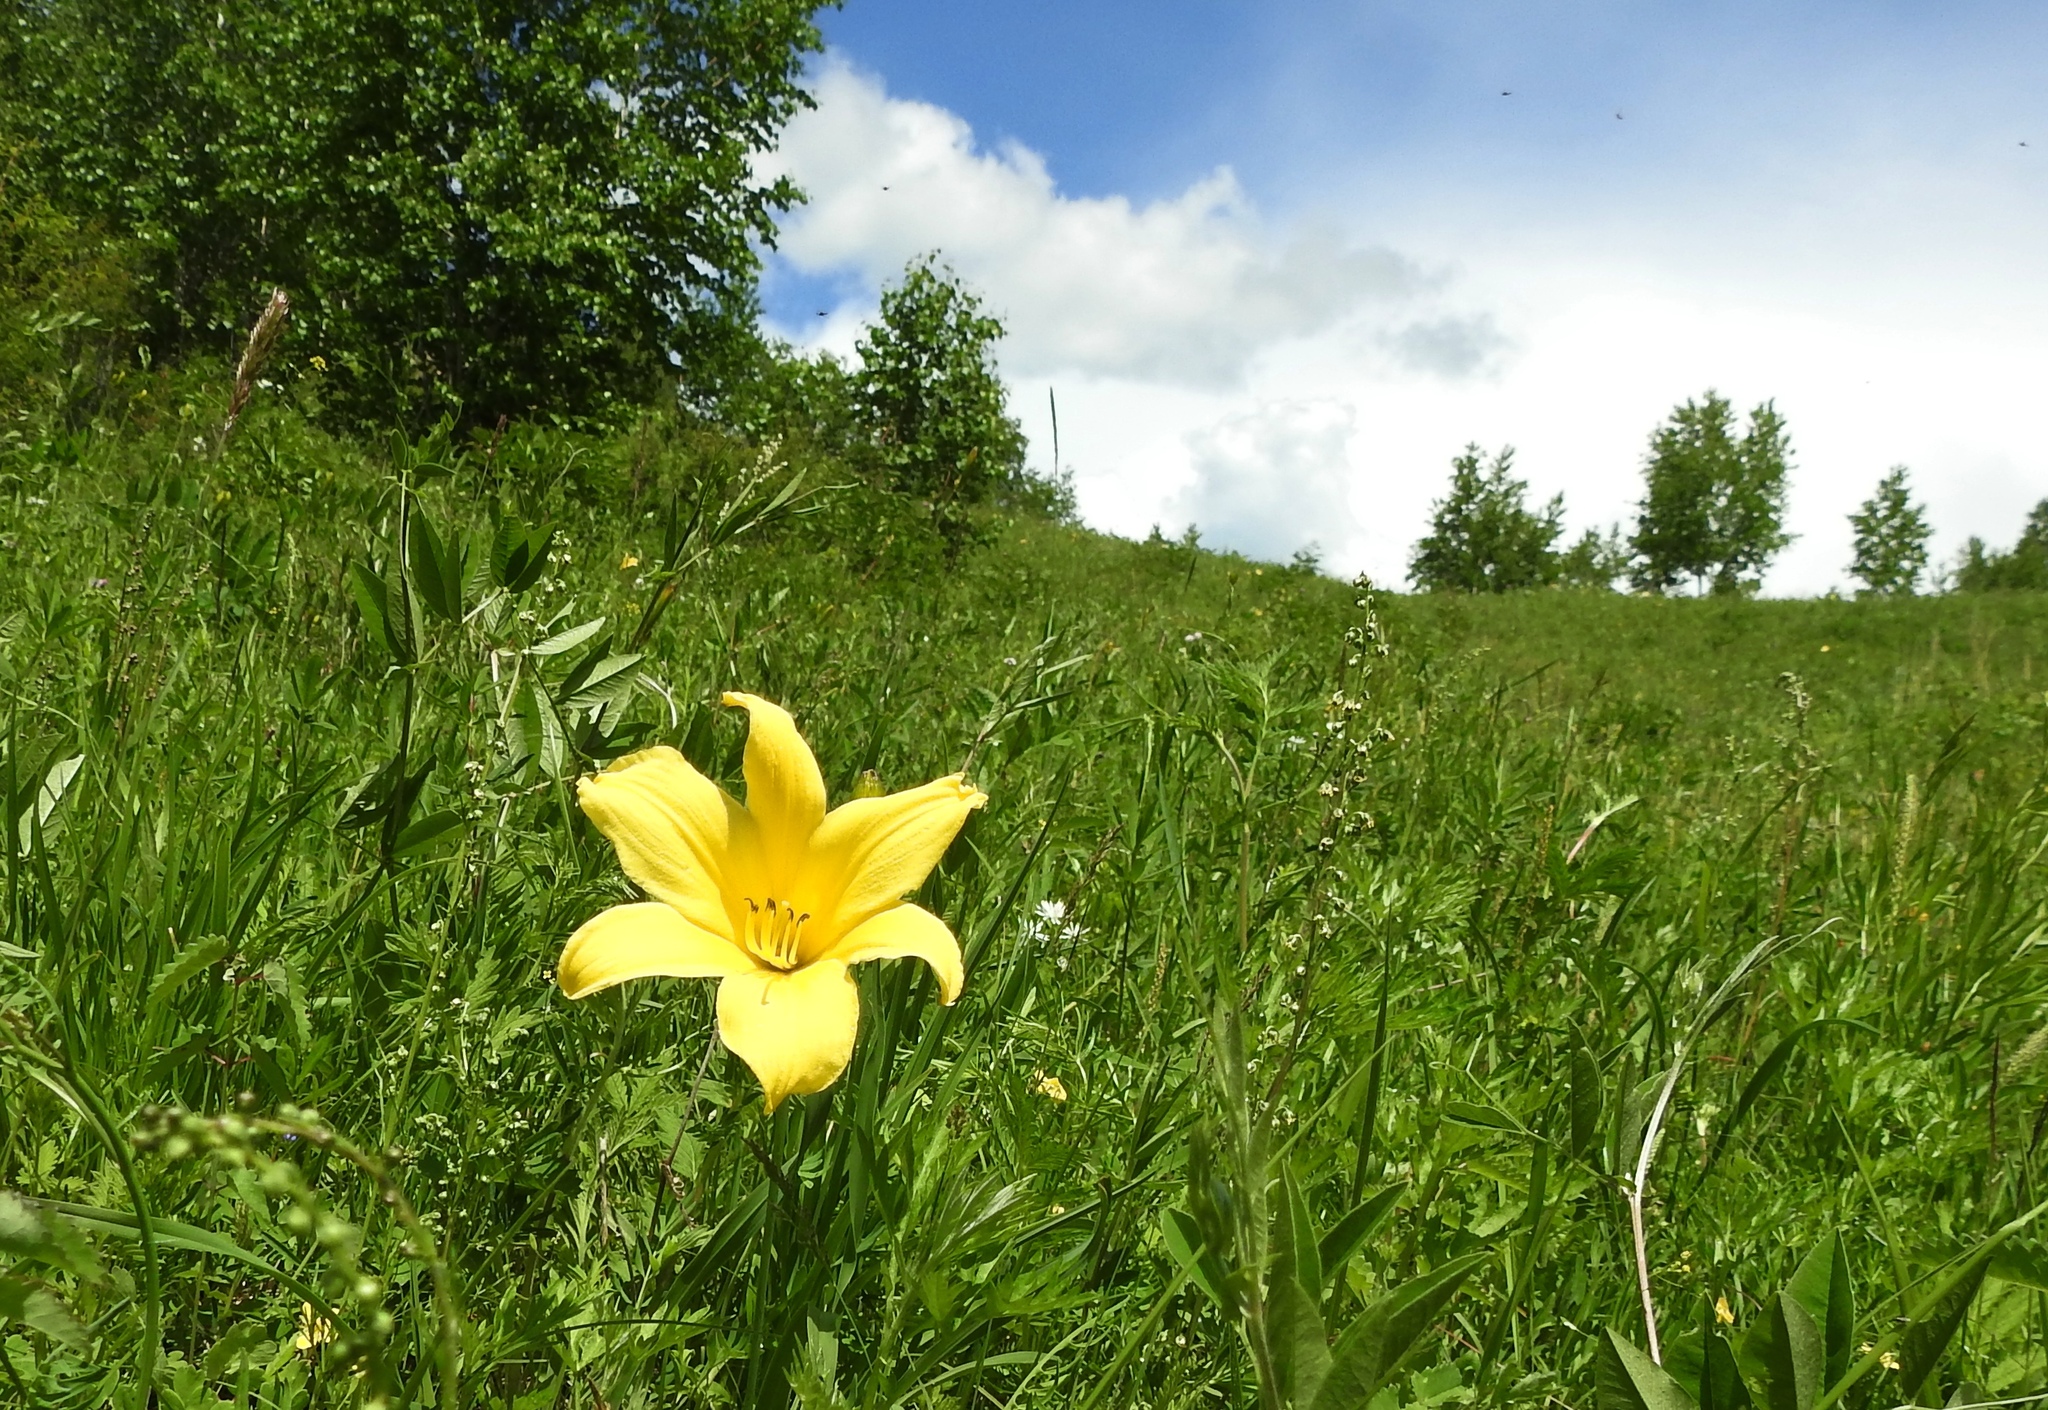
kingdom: Plantae
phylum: Tracheophyta
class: Liliopsida
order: Asparagales
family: Asphodelaceae
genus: Hemerocallis
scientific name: Hemerocallis minor
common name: Small daylily
